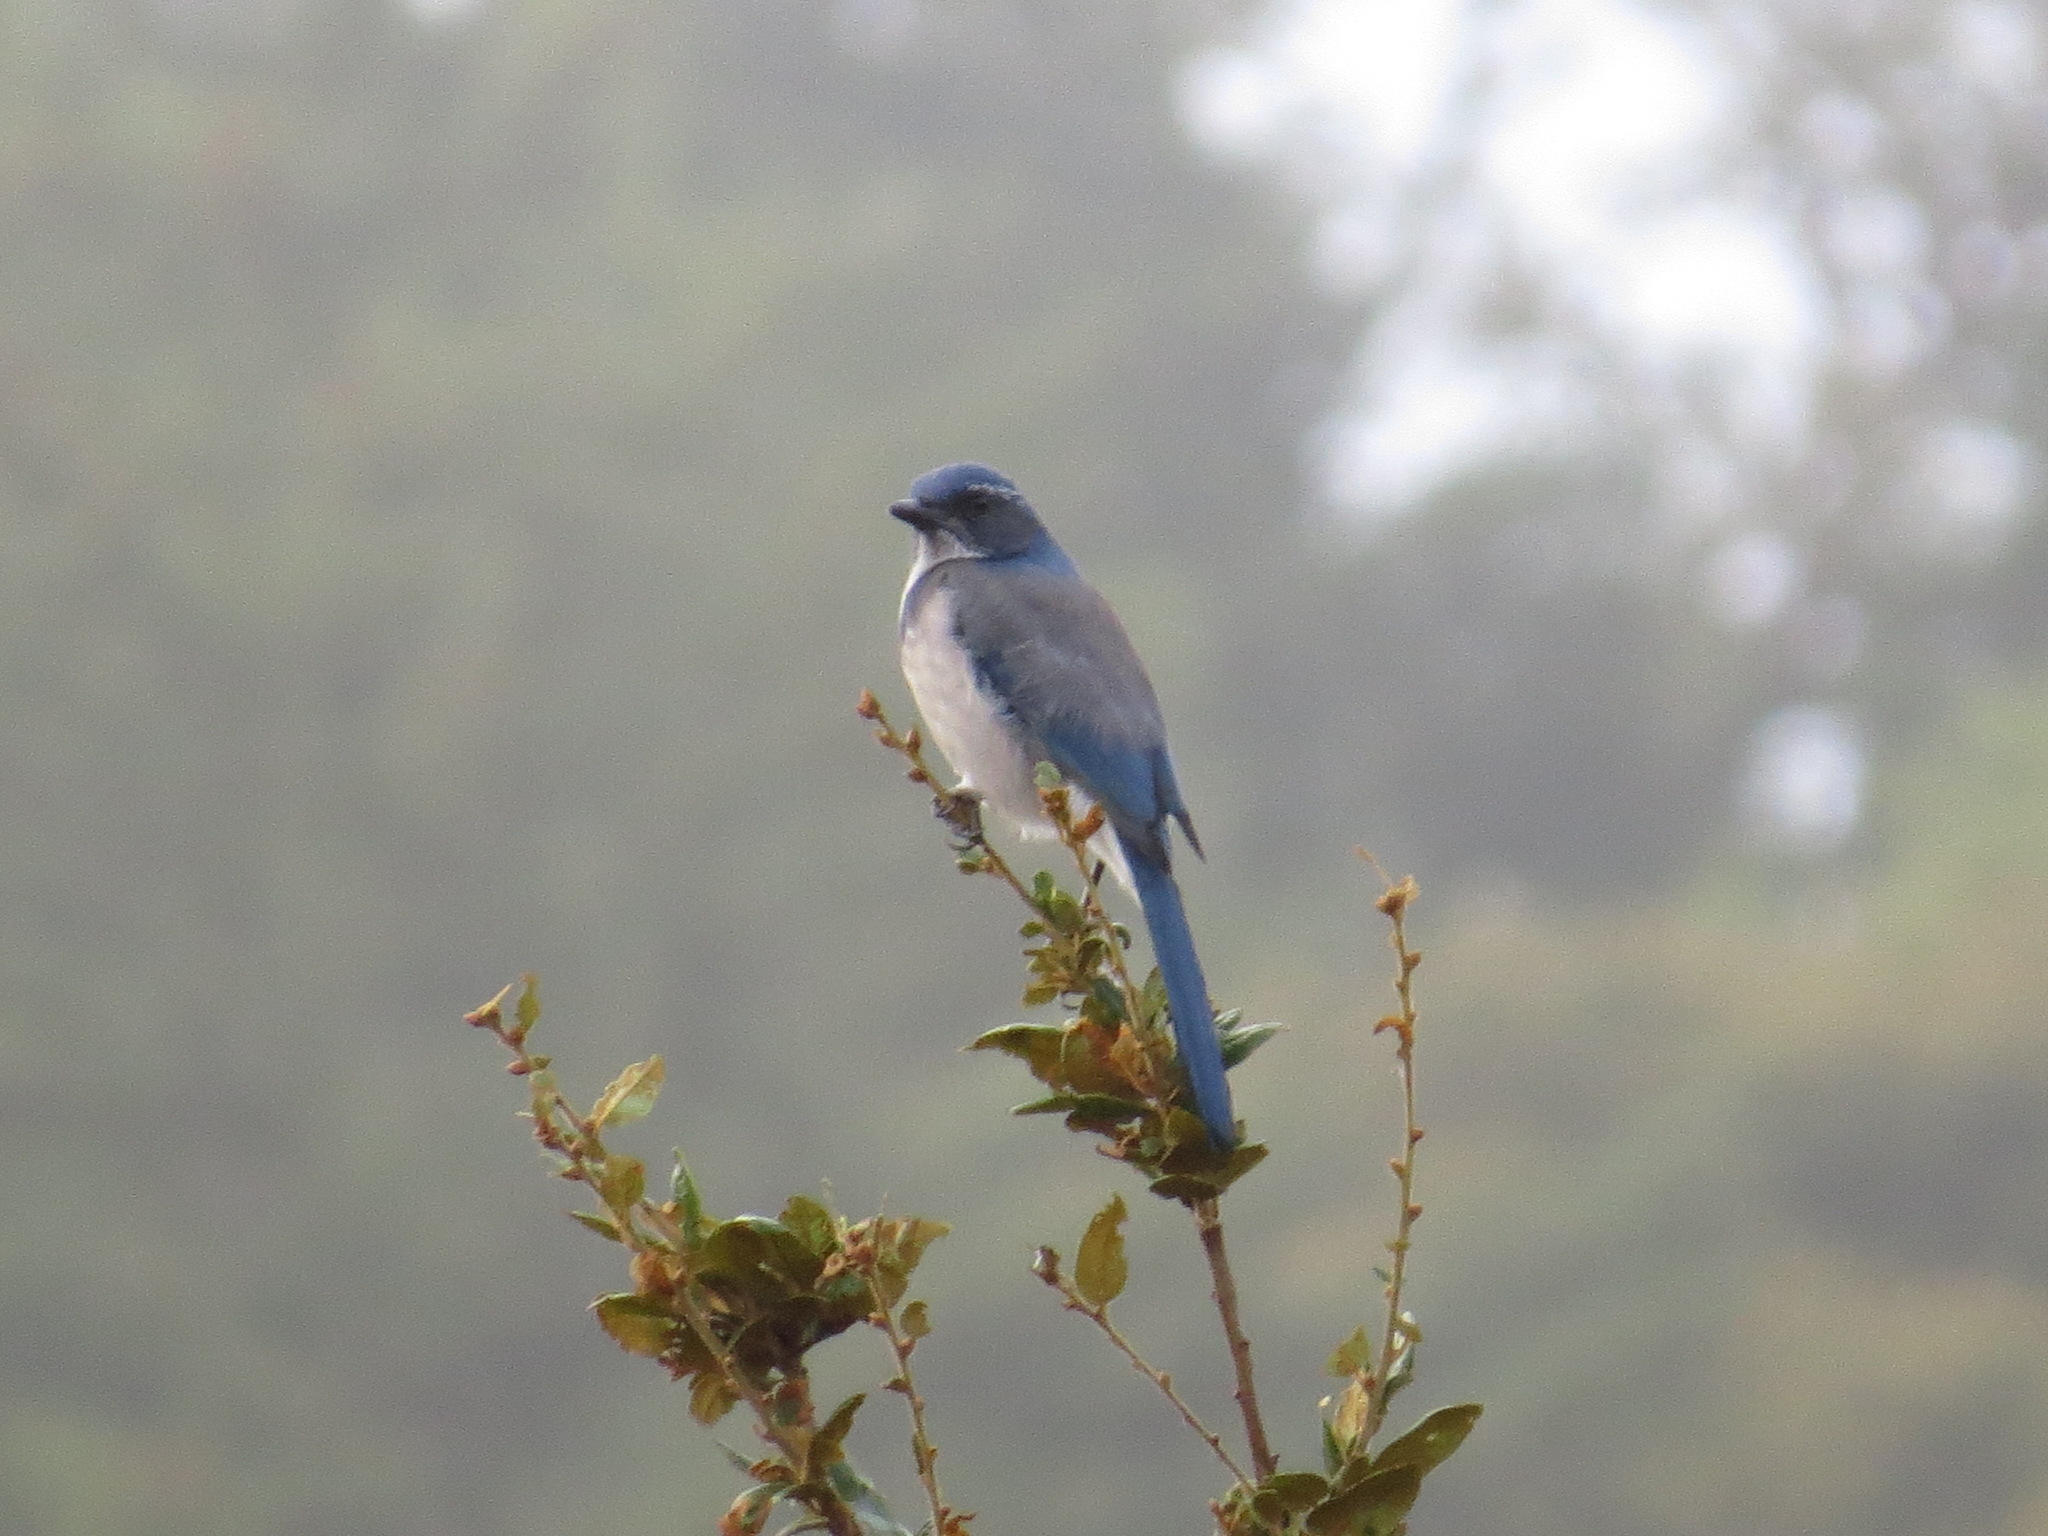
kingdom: Animalia
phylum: Chordata
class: Aves
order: Passeriformes
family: Corvidae
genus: Aphelocoma
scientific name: Aphelocoma californica
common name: California scrub-jay
